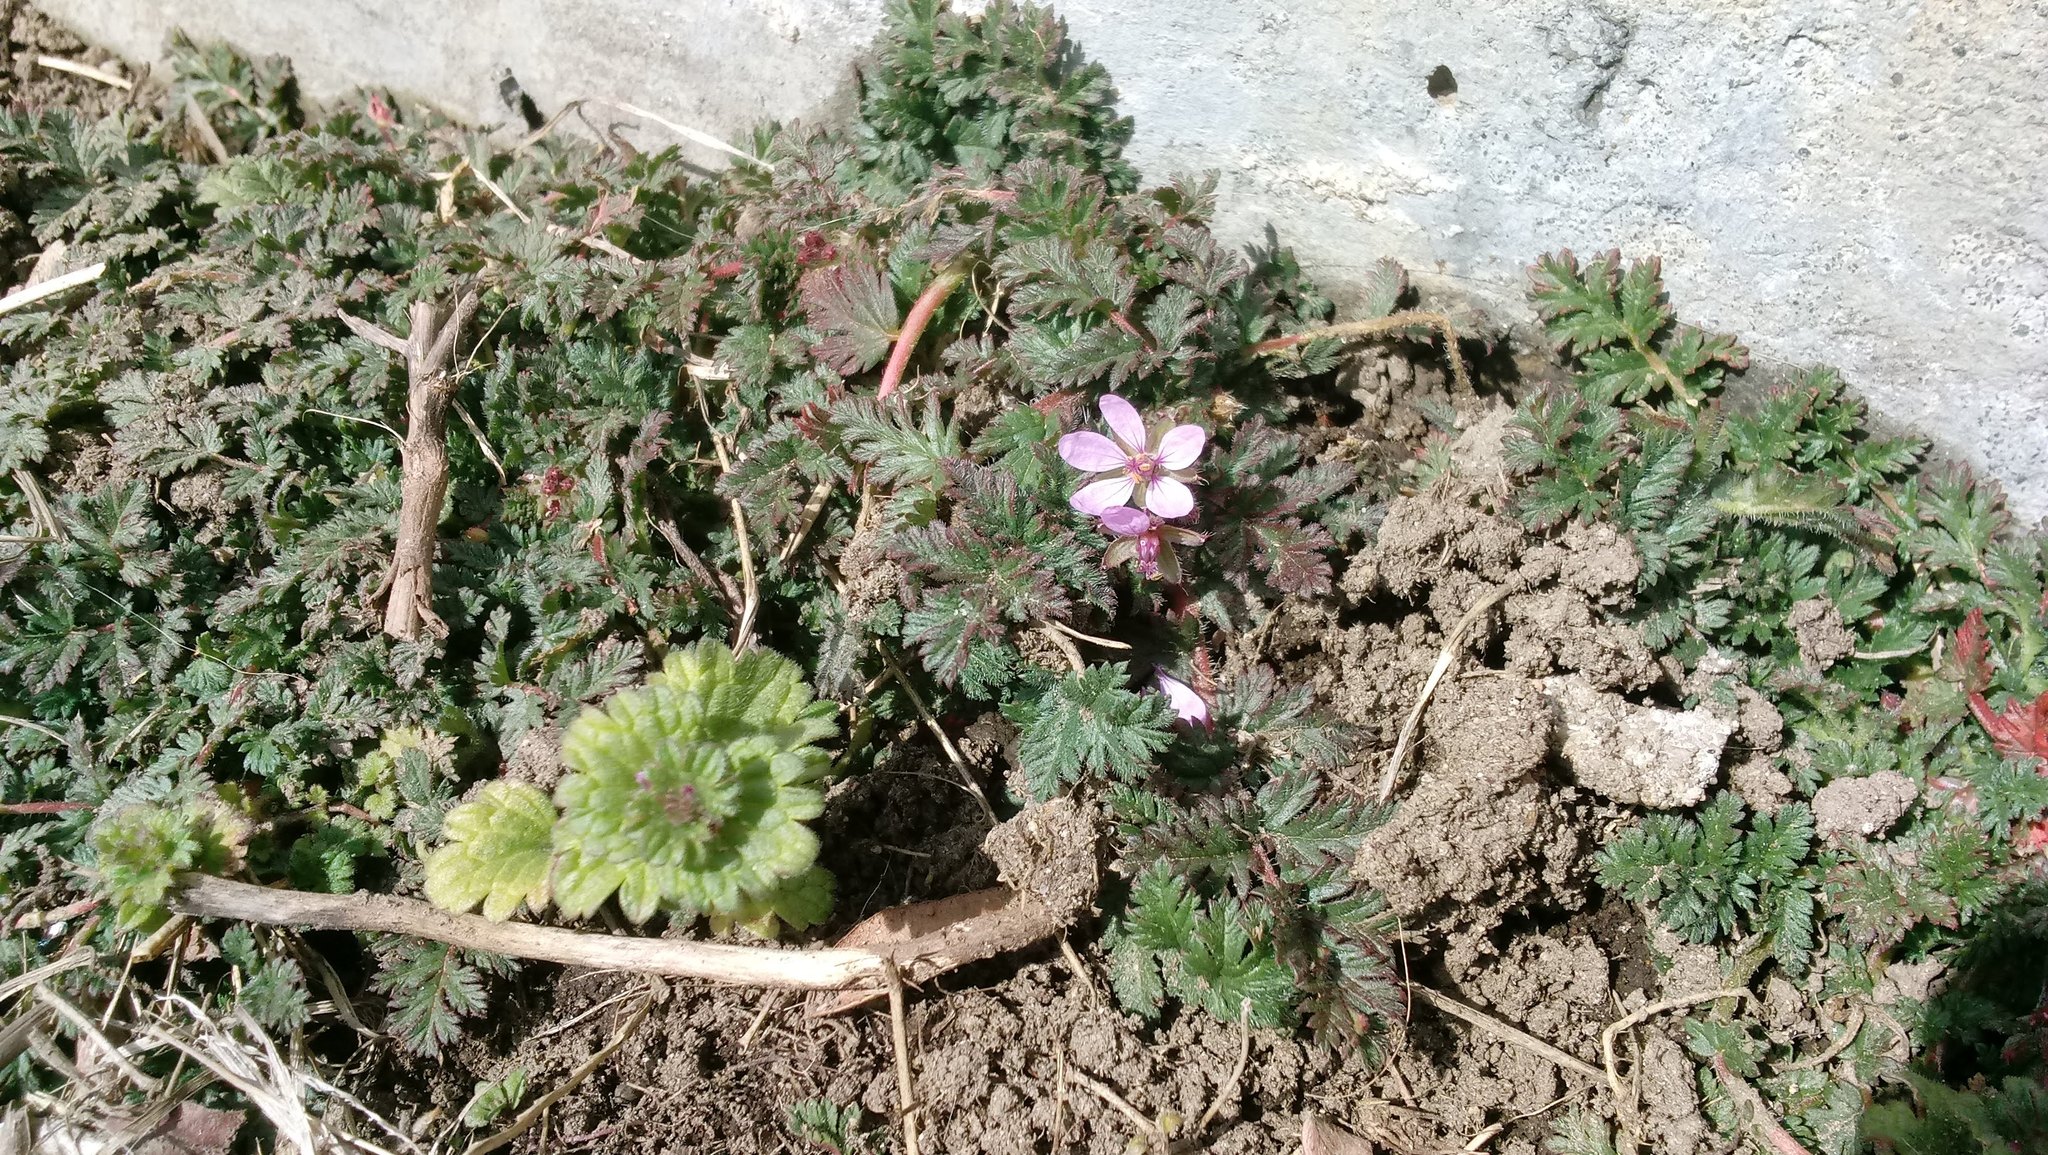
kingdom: Plantae
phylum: Tracheophyta
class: Magnoliopsida
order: Geraniales
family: Geraniaceae
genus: Erodium
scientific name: Erodium cicutarium
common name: Common stork's-bill
